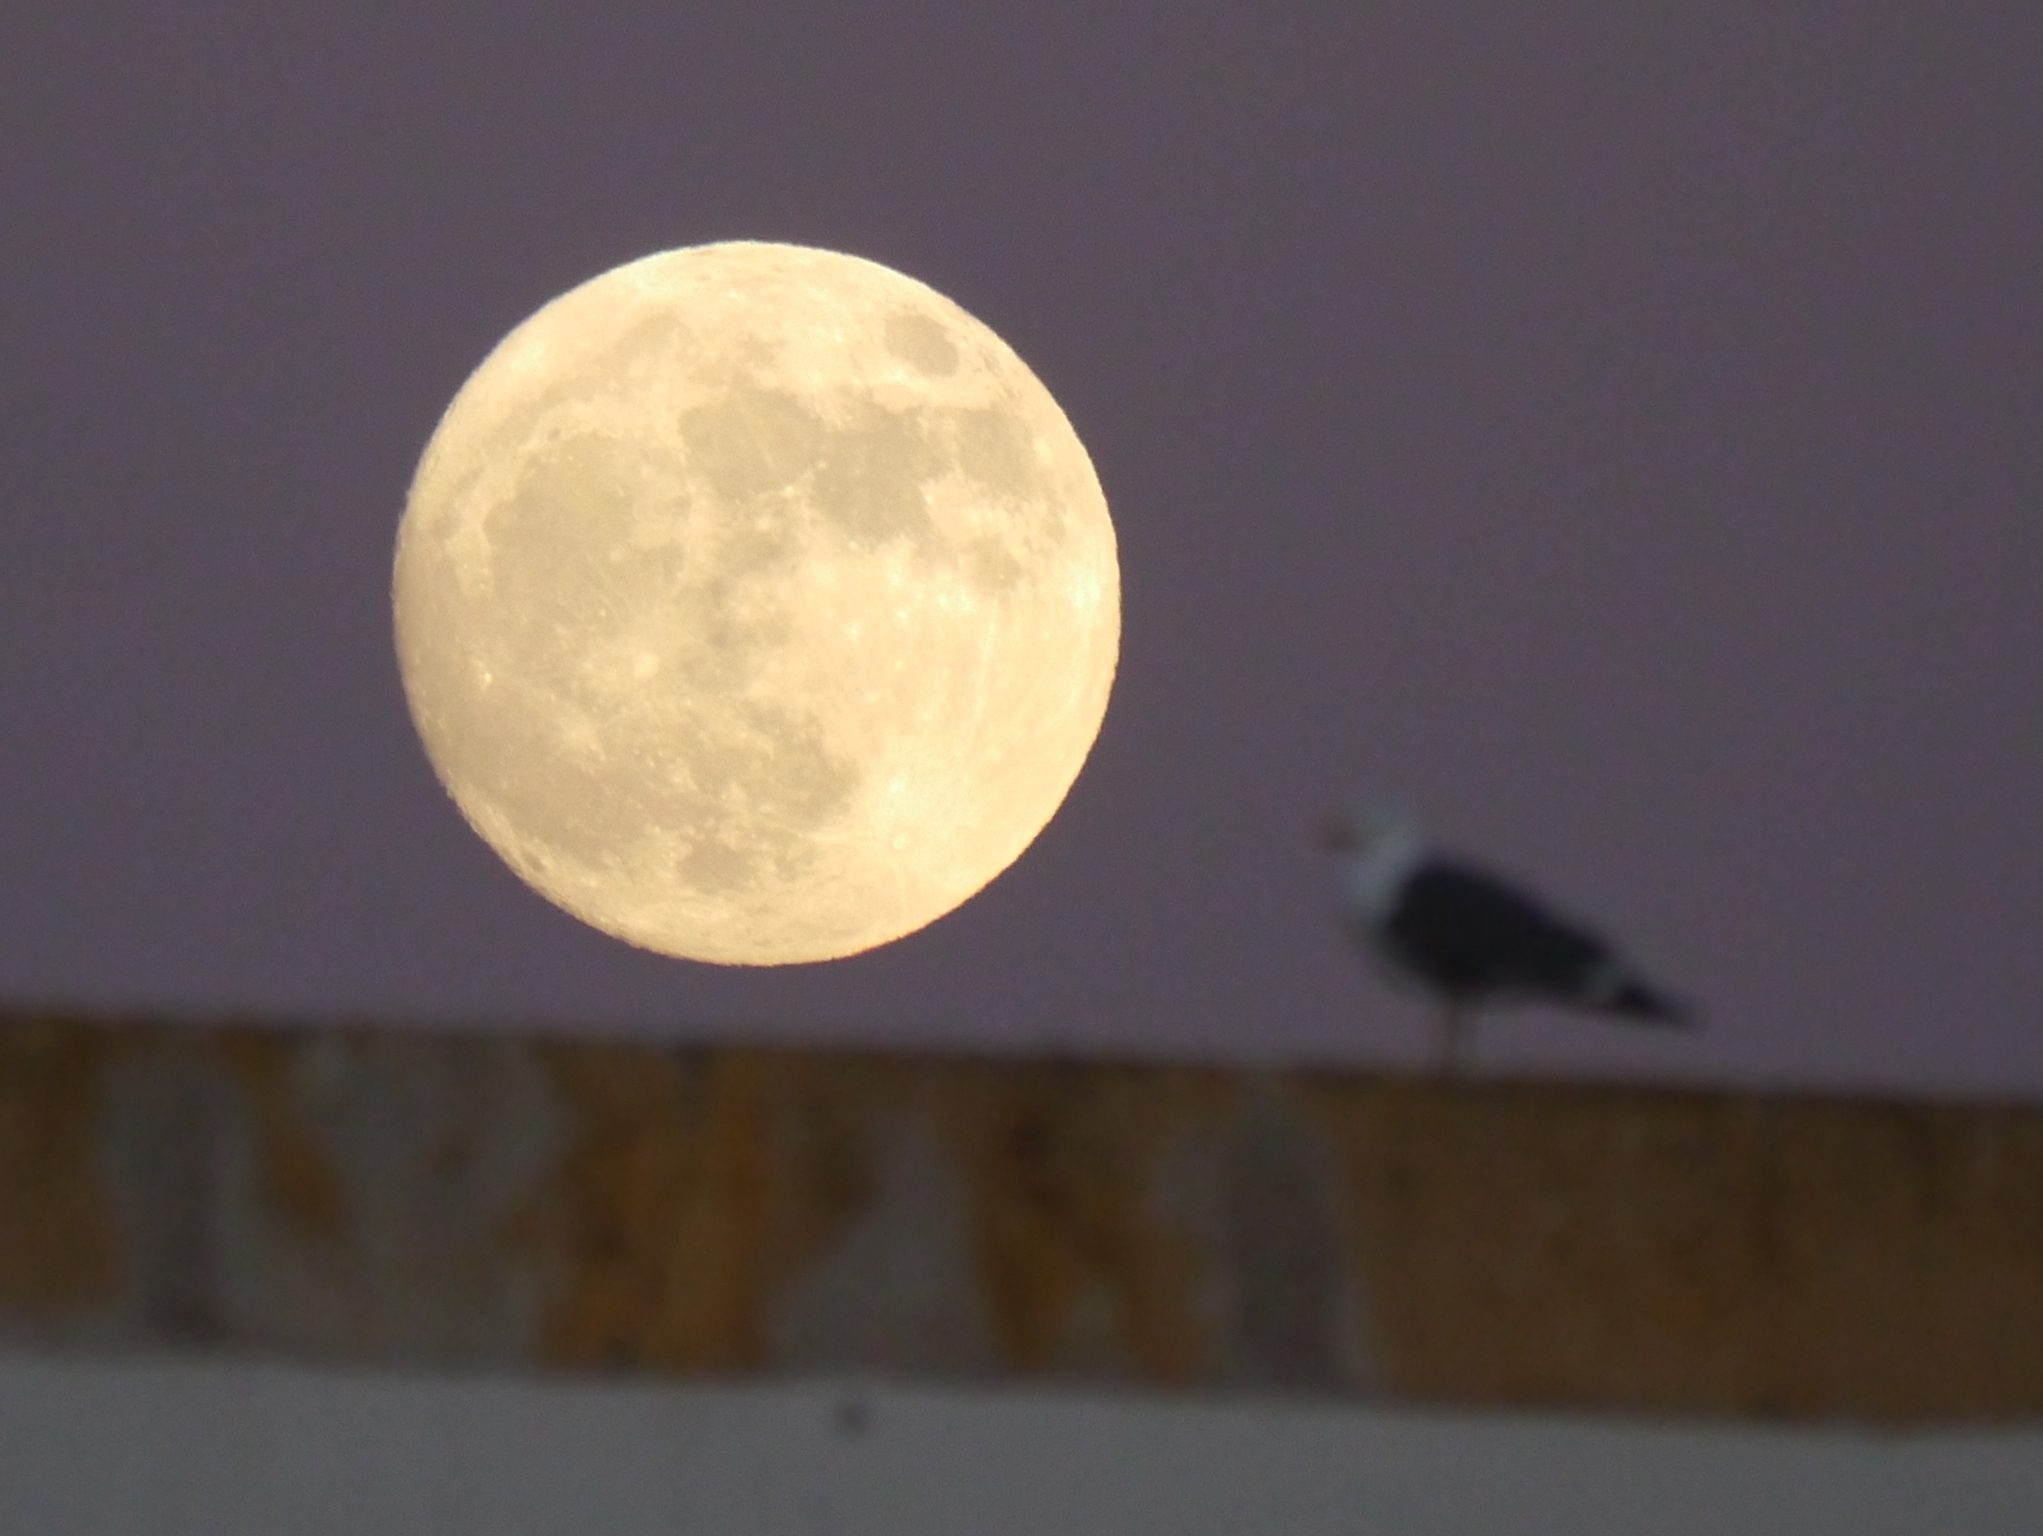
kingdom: Animalia
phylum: Chordata
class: Aves
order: Charadriiformes
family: Laridae
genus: Larus
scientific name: Larus michahellis
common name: Yellow-legged gull
